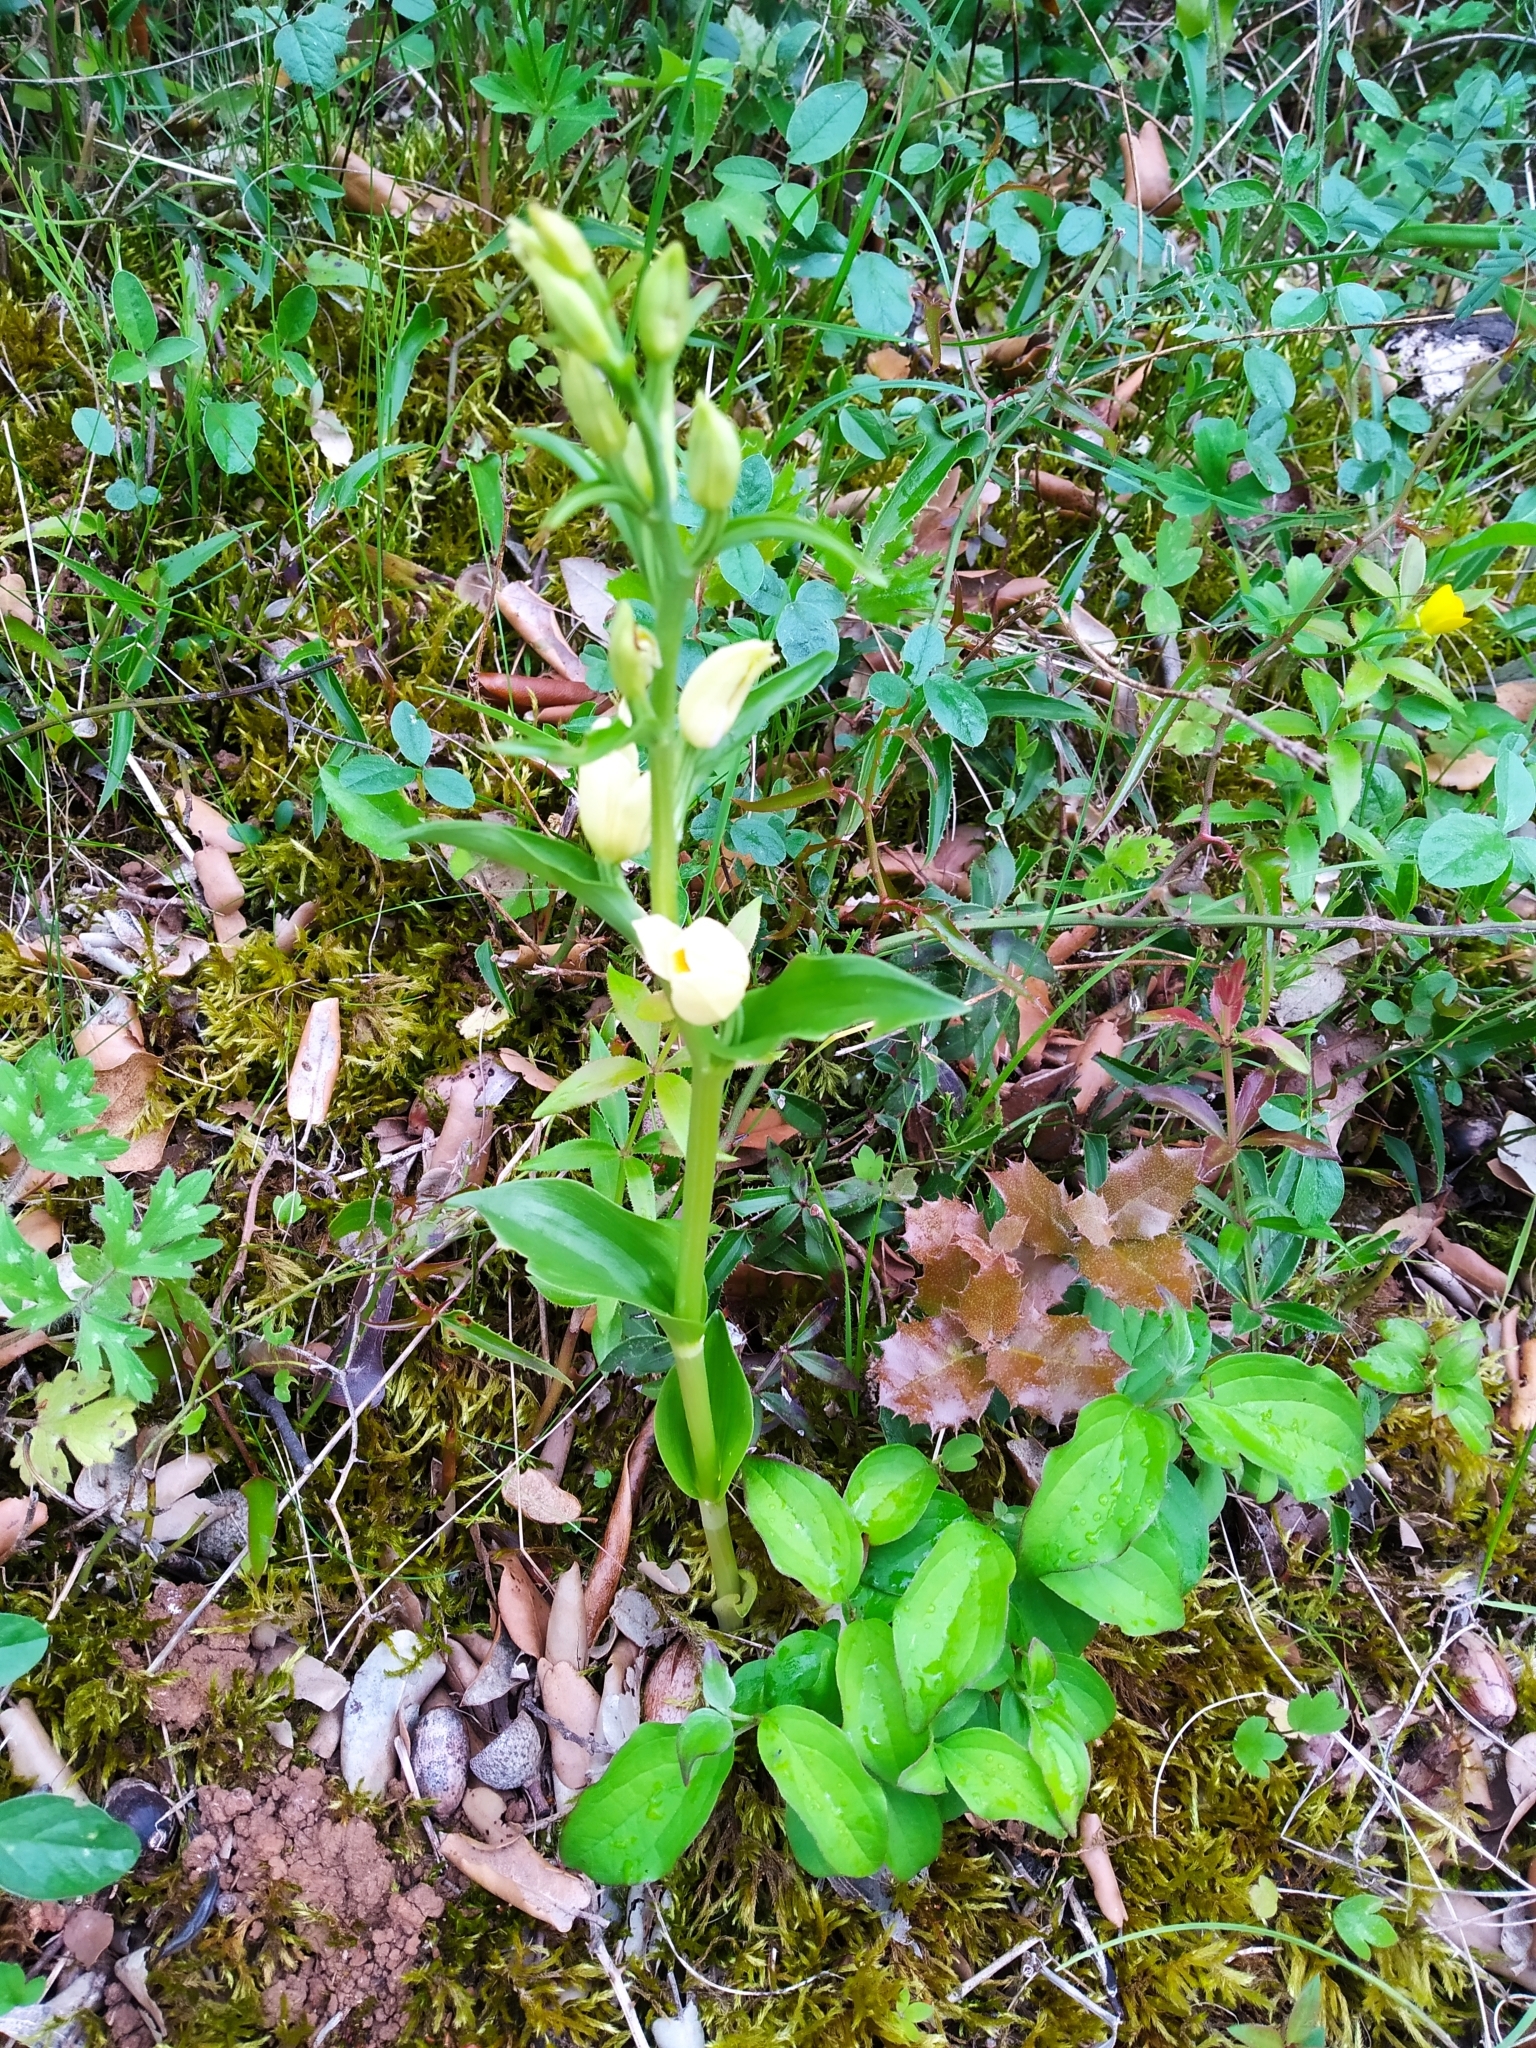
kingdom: Plantae
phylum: Tracheophyta
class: Liliopsida
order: Asparagales
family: Orchidaceae
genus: Cephalanthera
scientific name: Cephalanthera damasonium
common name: White helleborine
